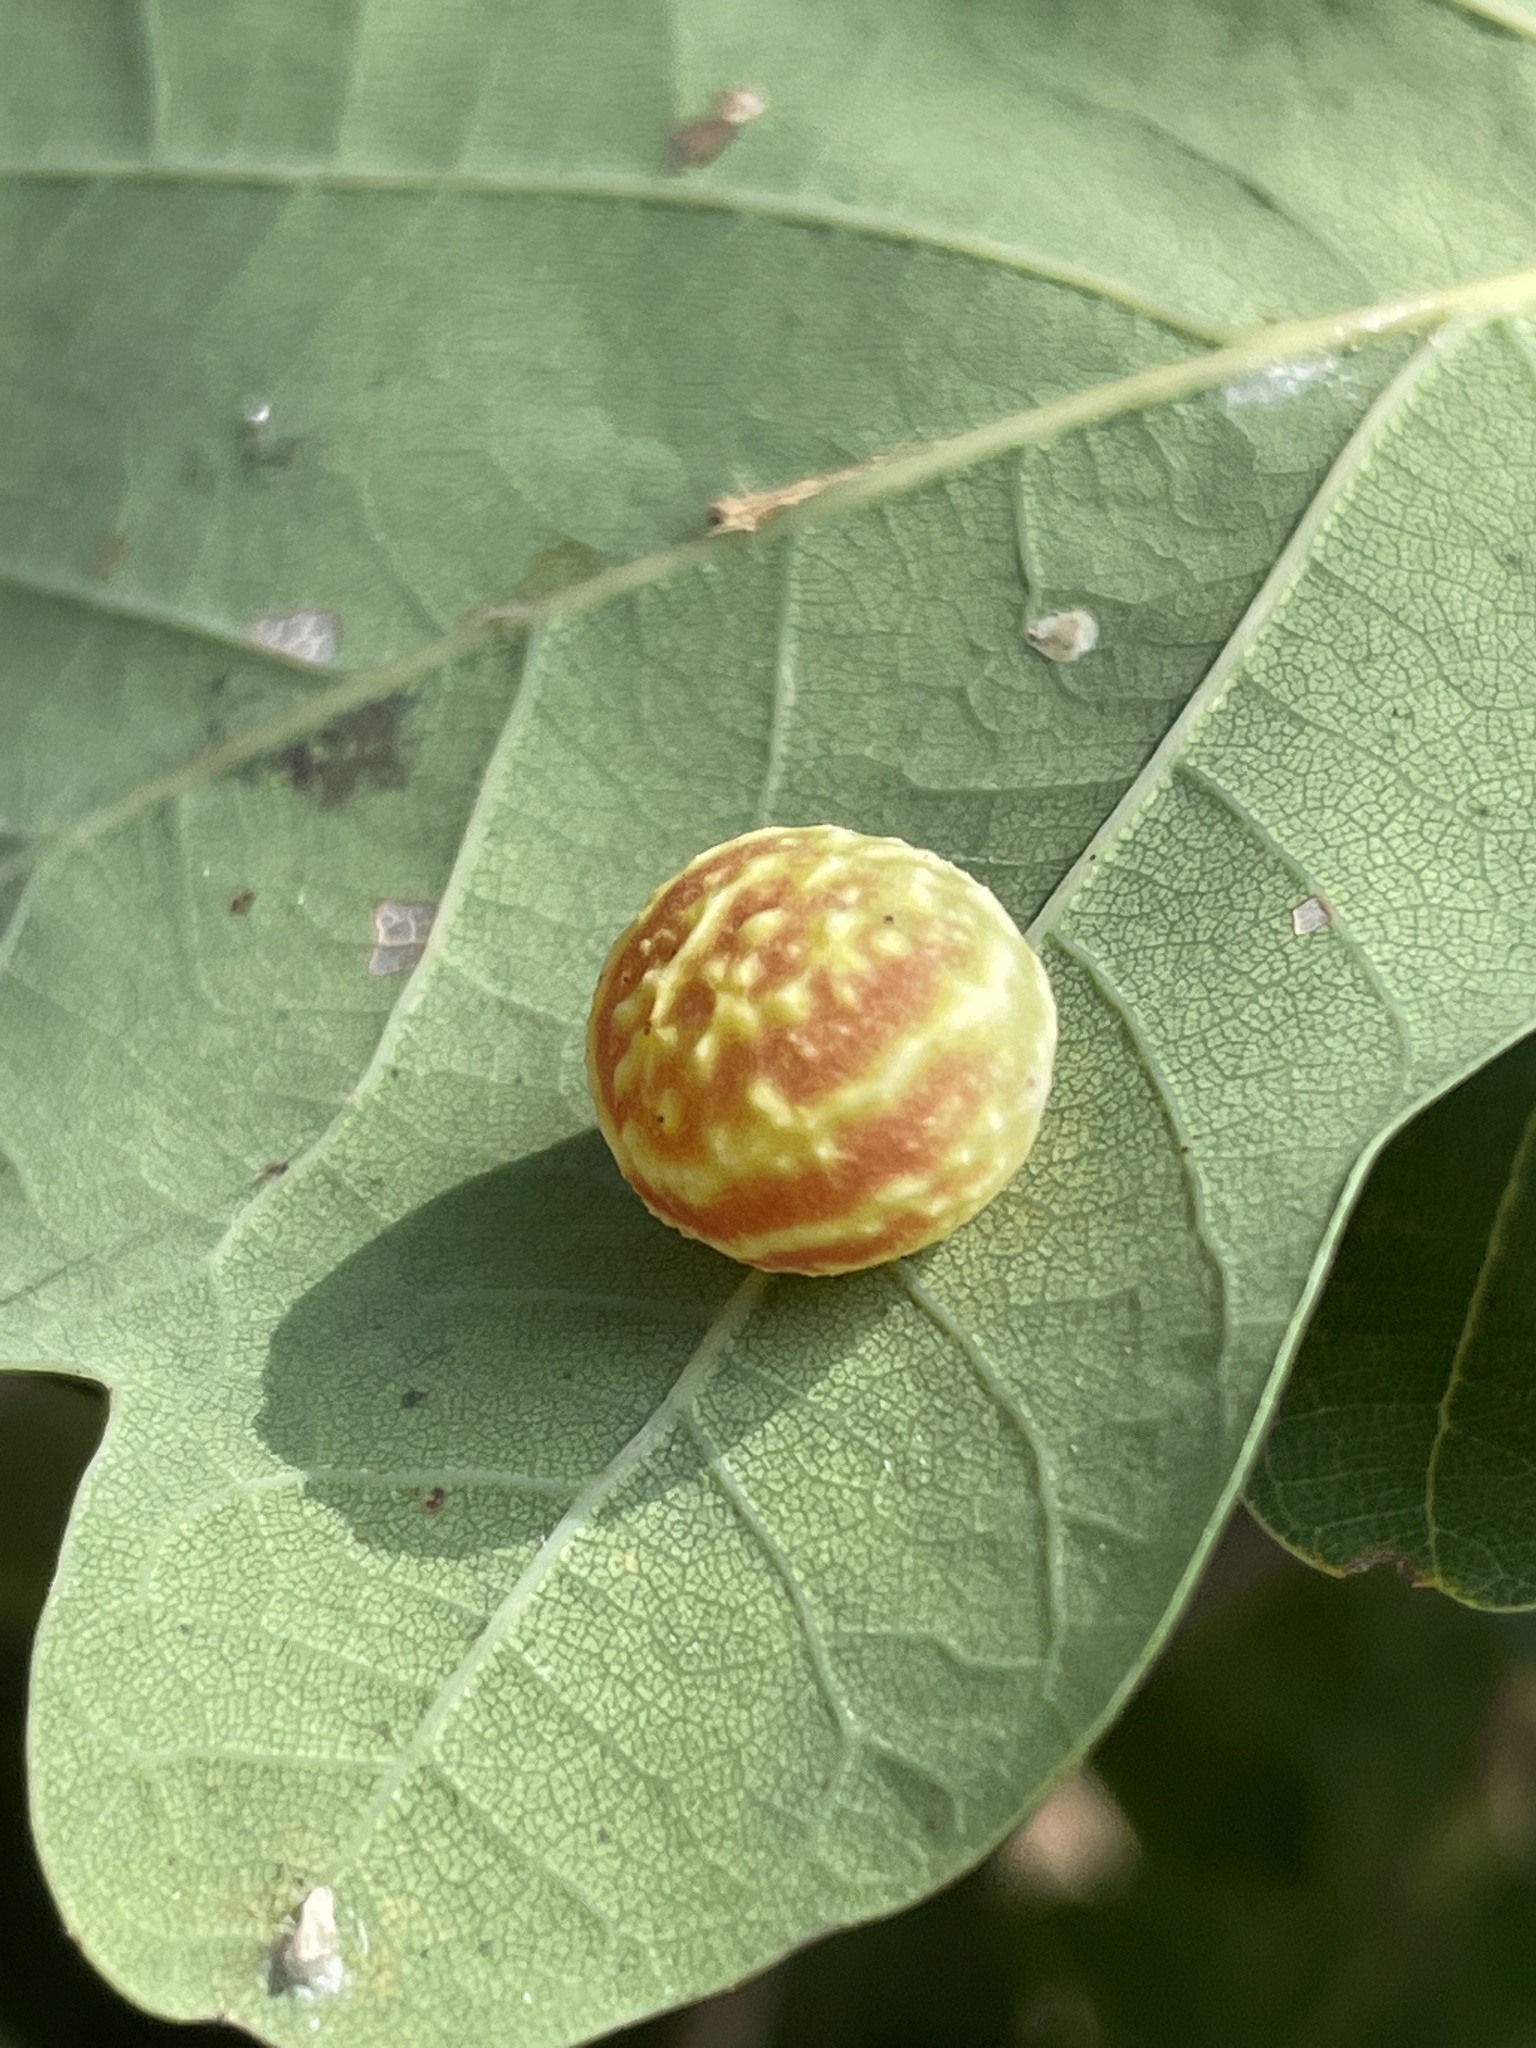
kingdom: Animalia
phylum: Arthropoda
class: Insecta
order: Hymenoptera
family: Cynipidae
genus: Cynips
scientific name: Cynips longiventris
